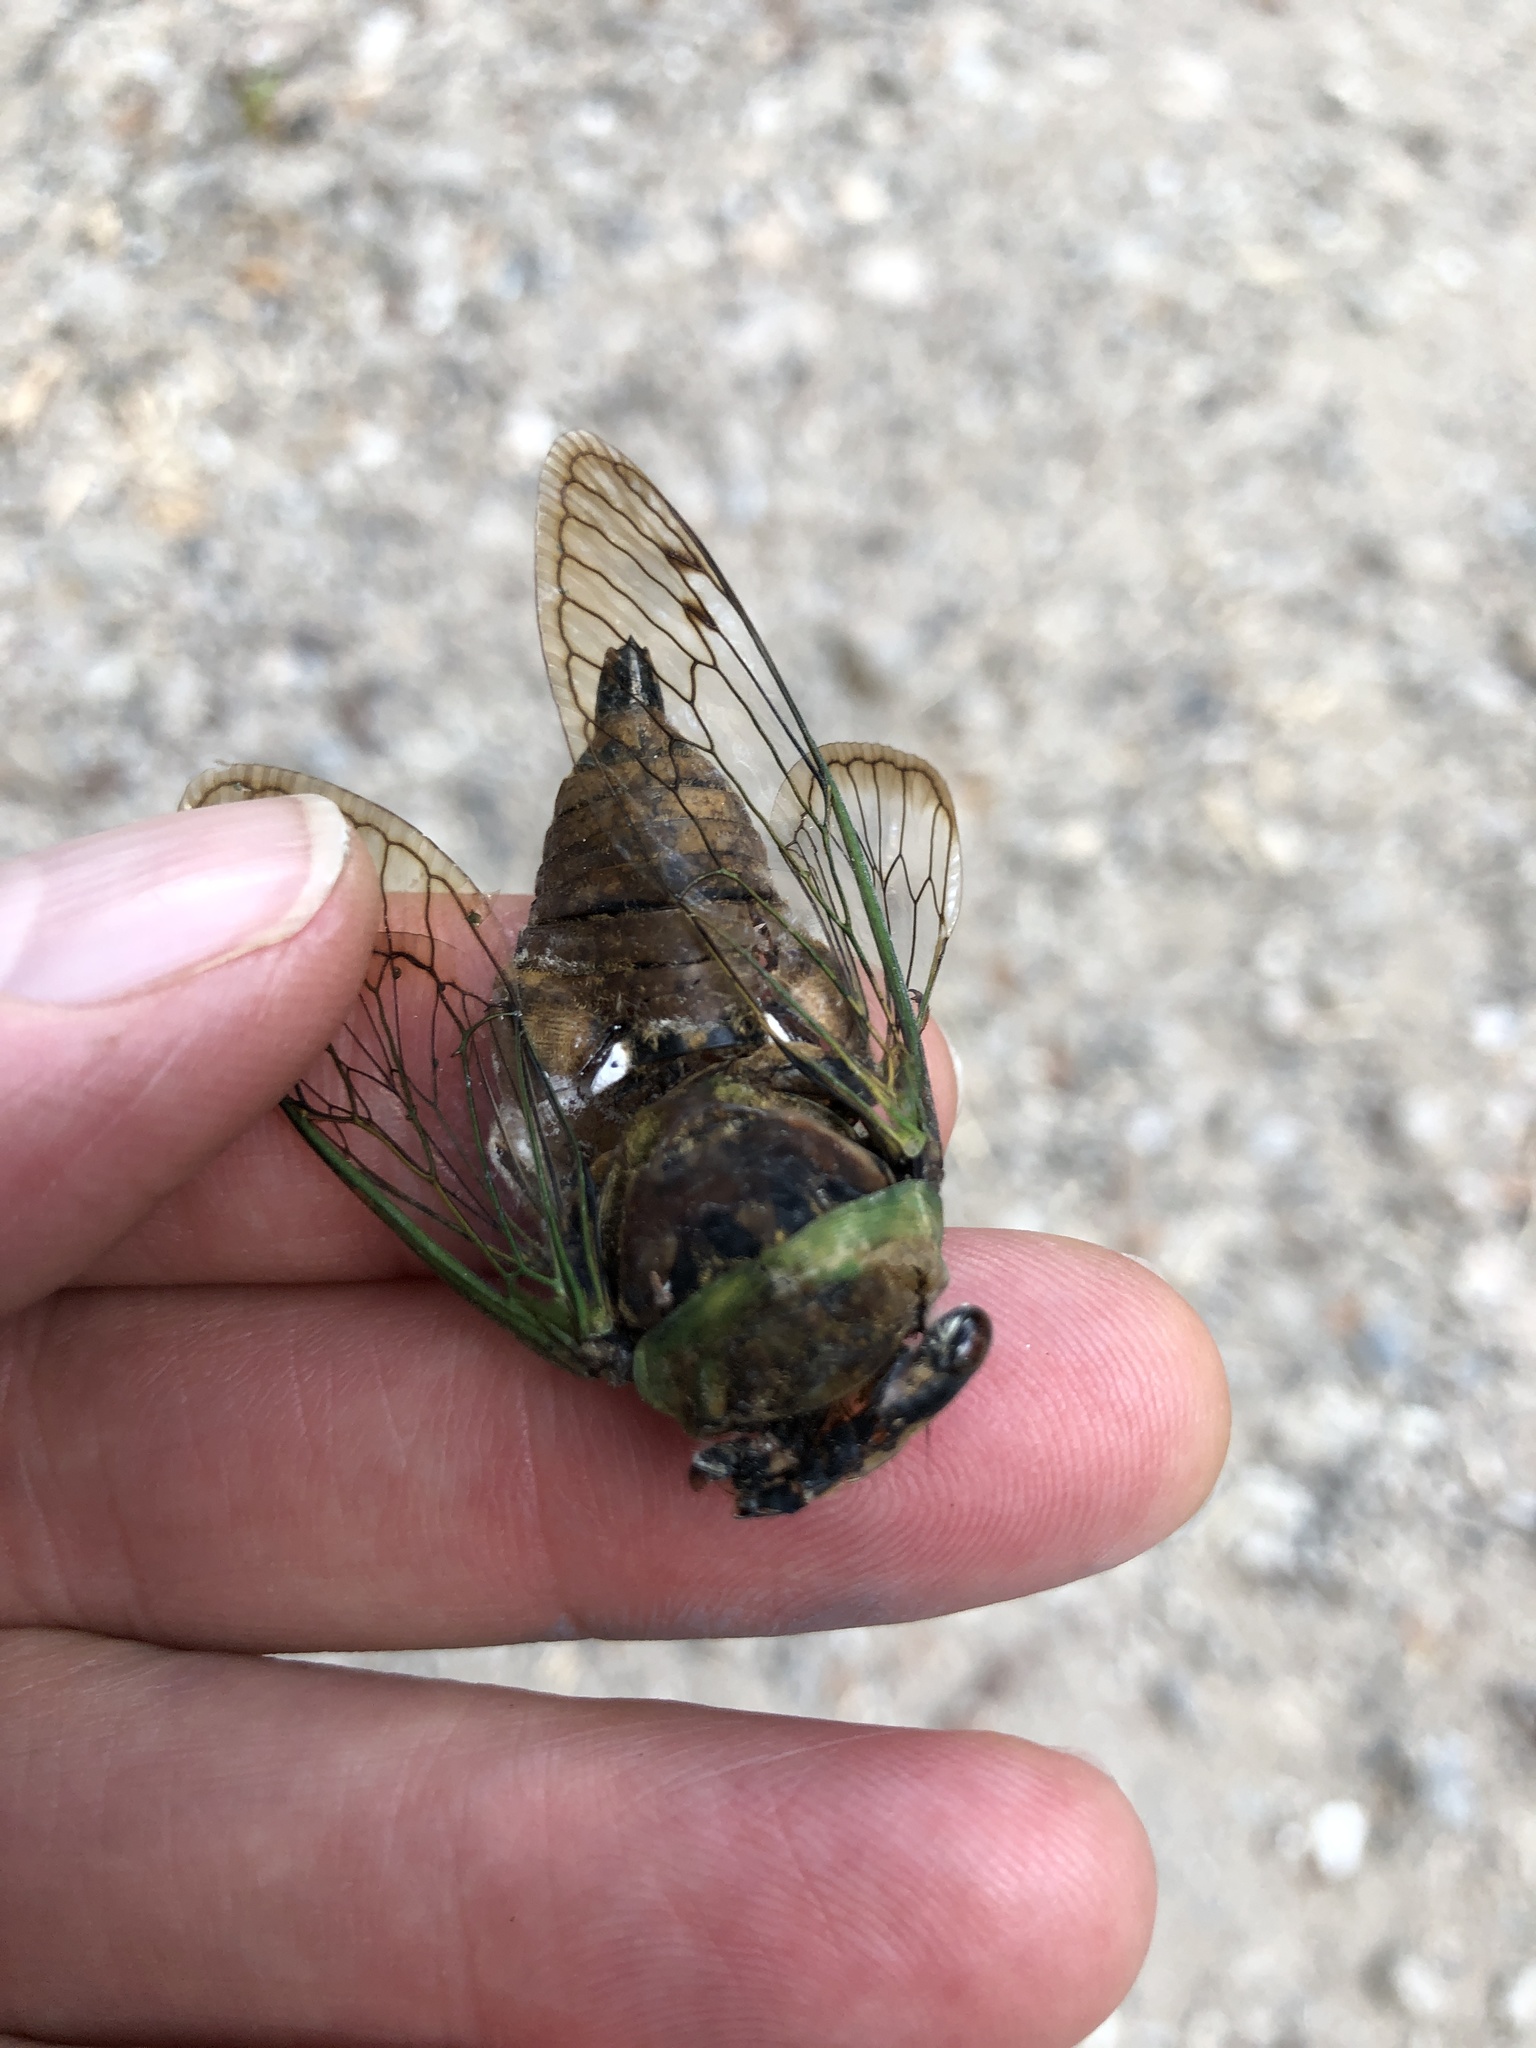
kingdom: Animalia
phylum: Arthropoda
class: Insecta
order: Hemiptera
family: Cicadidae
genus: Neotibicen
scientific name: Neotibicen superbus
